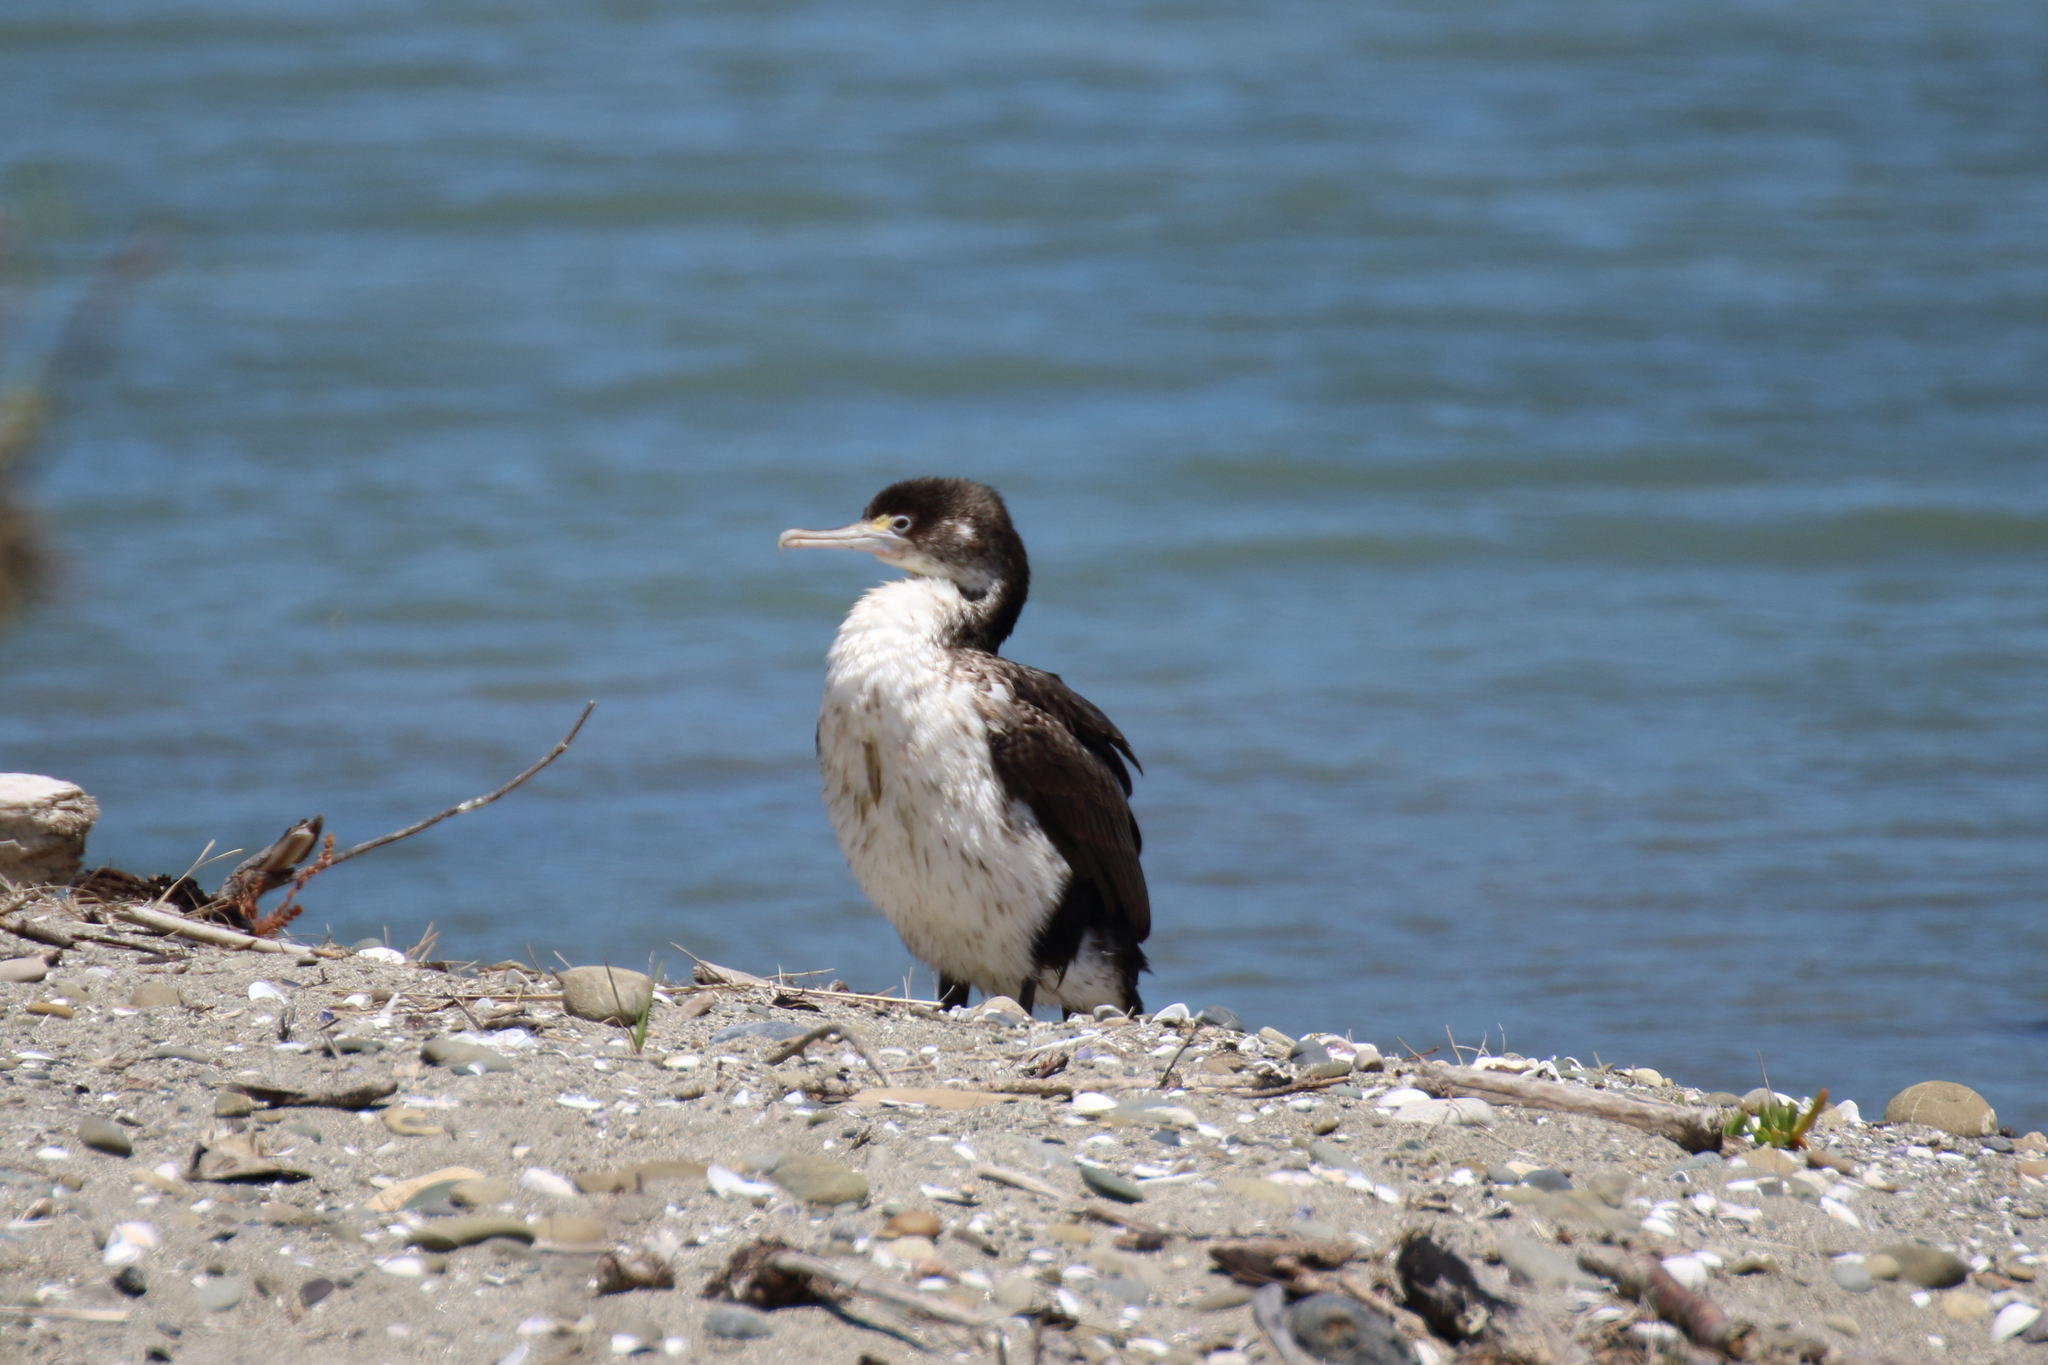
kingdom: Animalia
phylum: Chordata
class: Aves
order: Suliformes
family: Phalacrocoracidae
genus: Phalacrocorax
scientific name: Phalacrocorax varius
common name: Pied cormorant
